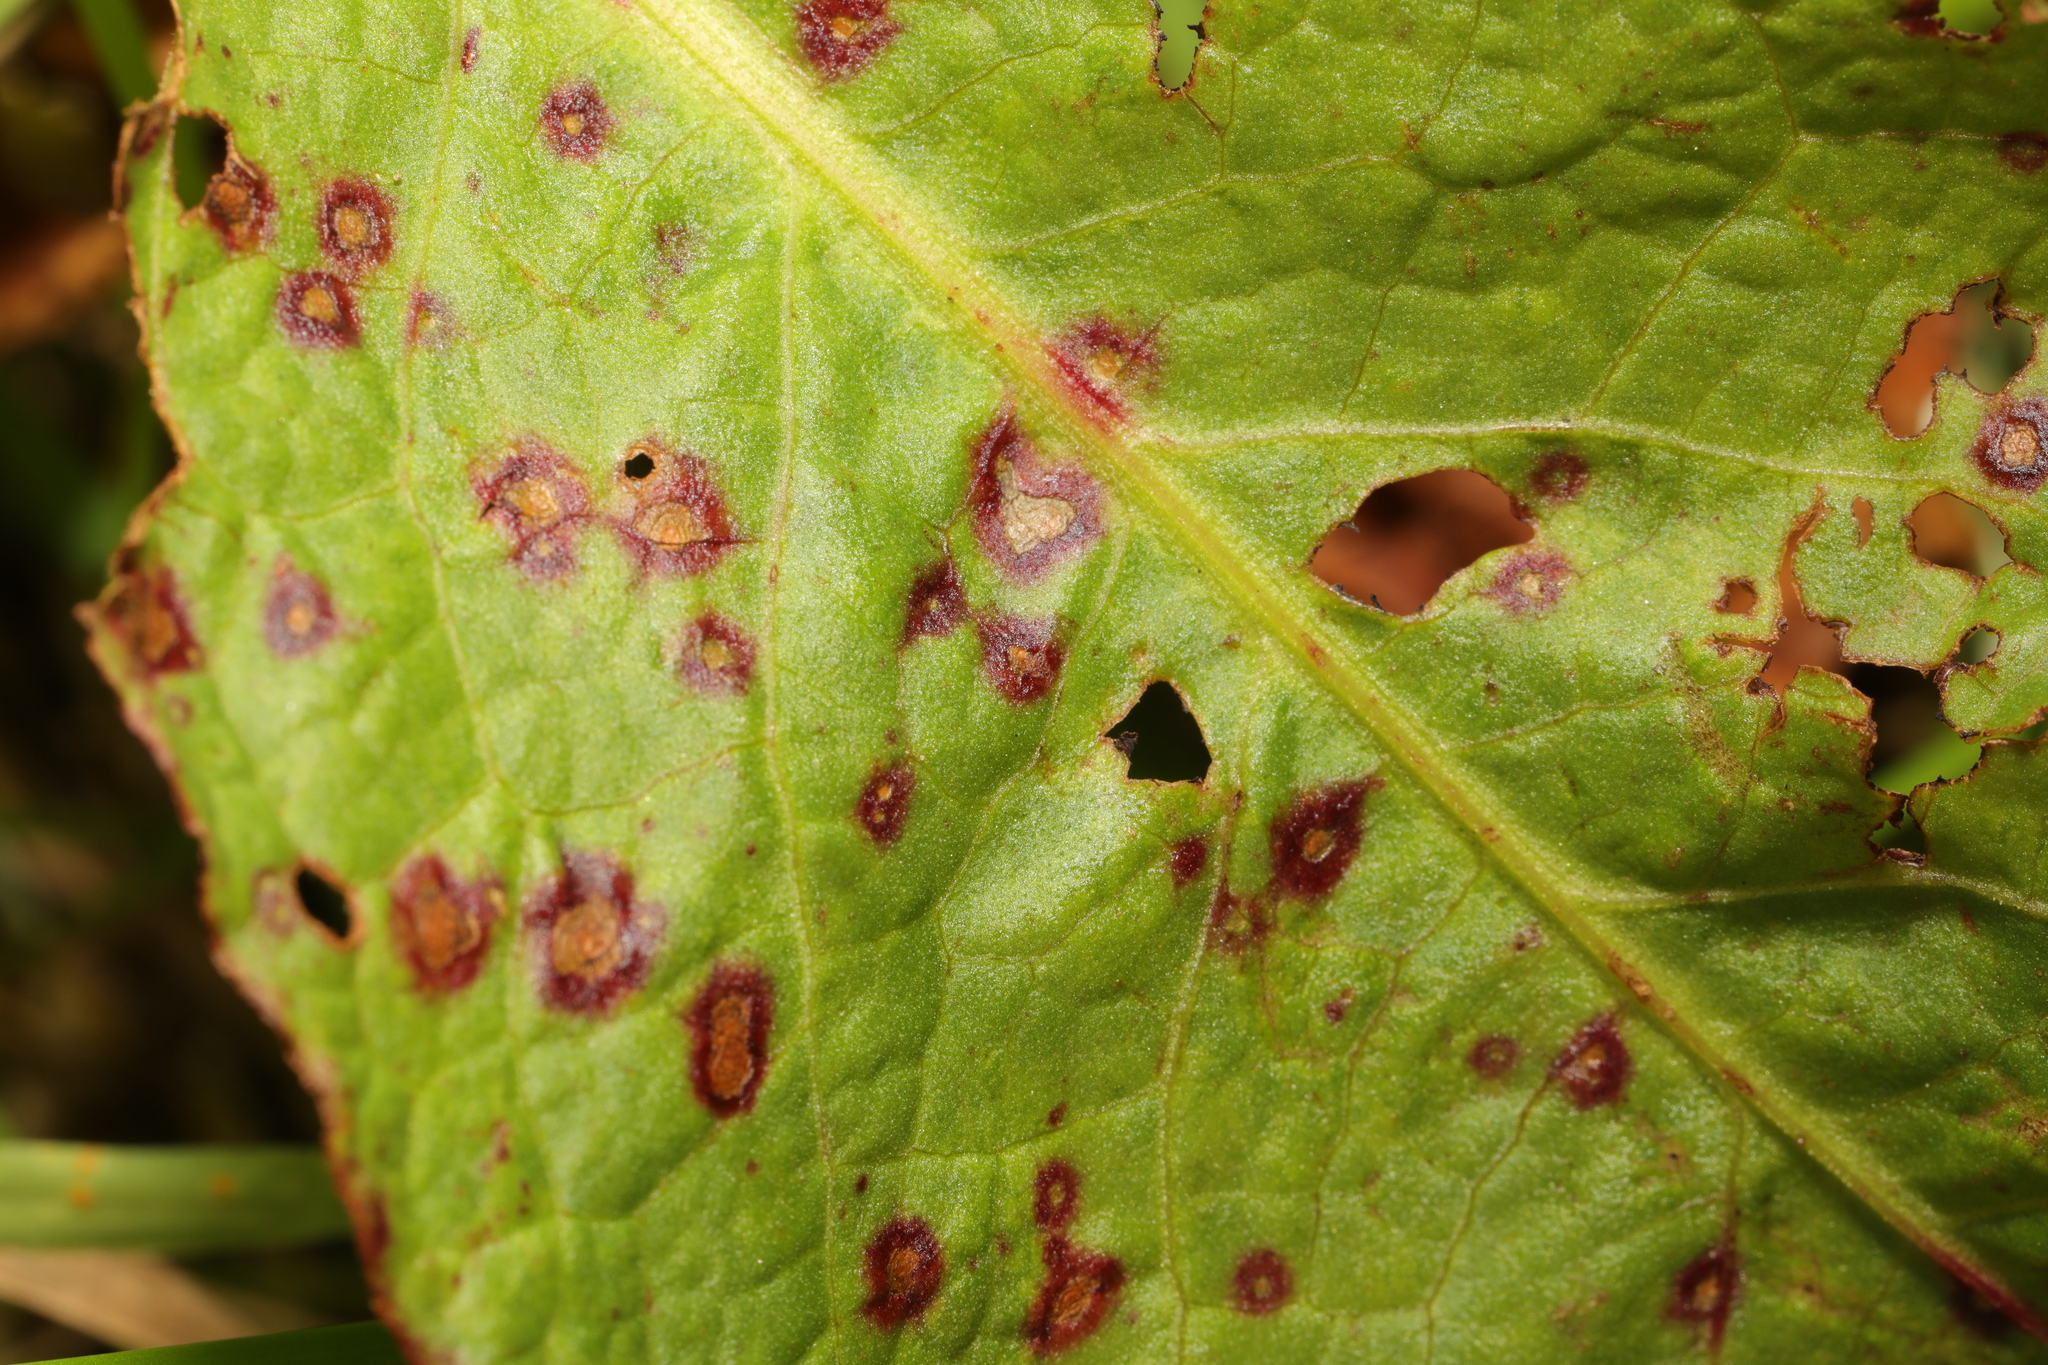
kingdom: Fungi
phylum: Ascomycota
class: Dothideomycetes
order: Mycosphaerellales
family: Mycosphaerellaceae
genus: Ramularia
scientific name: Ramularia rubella
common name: Red dock spot
